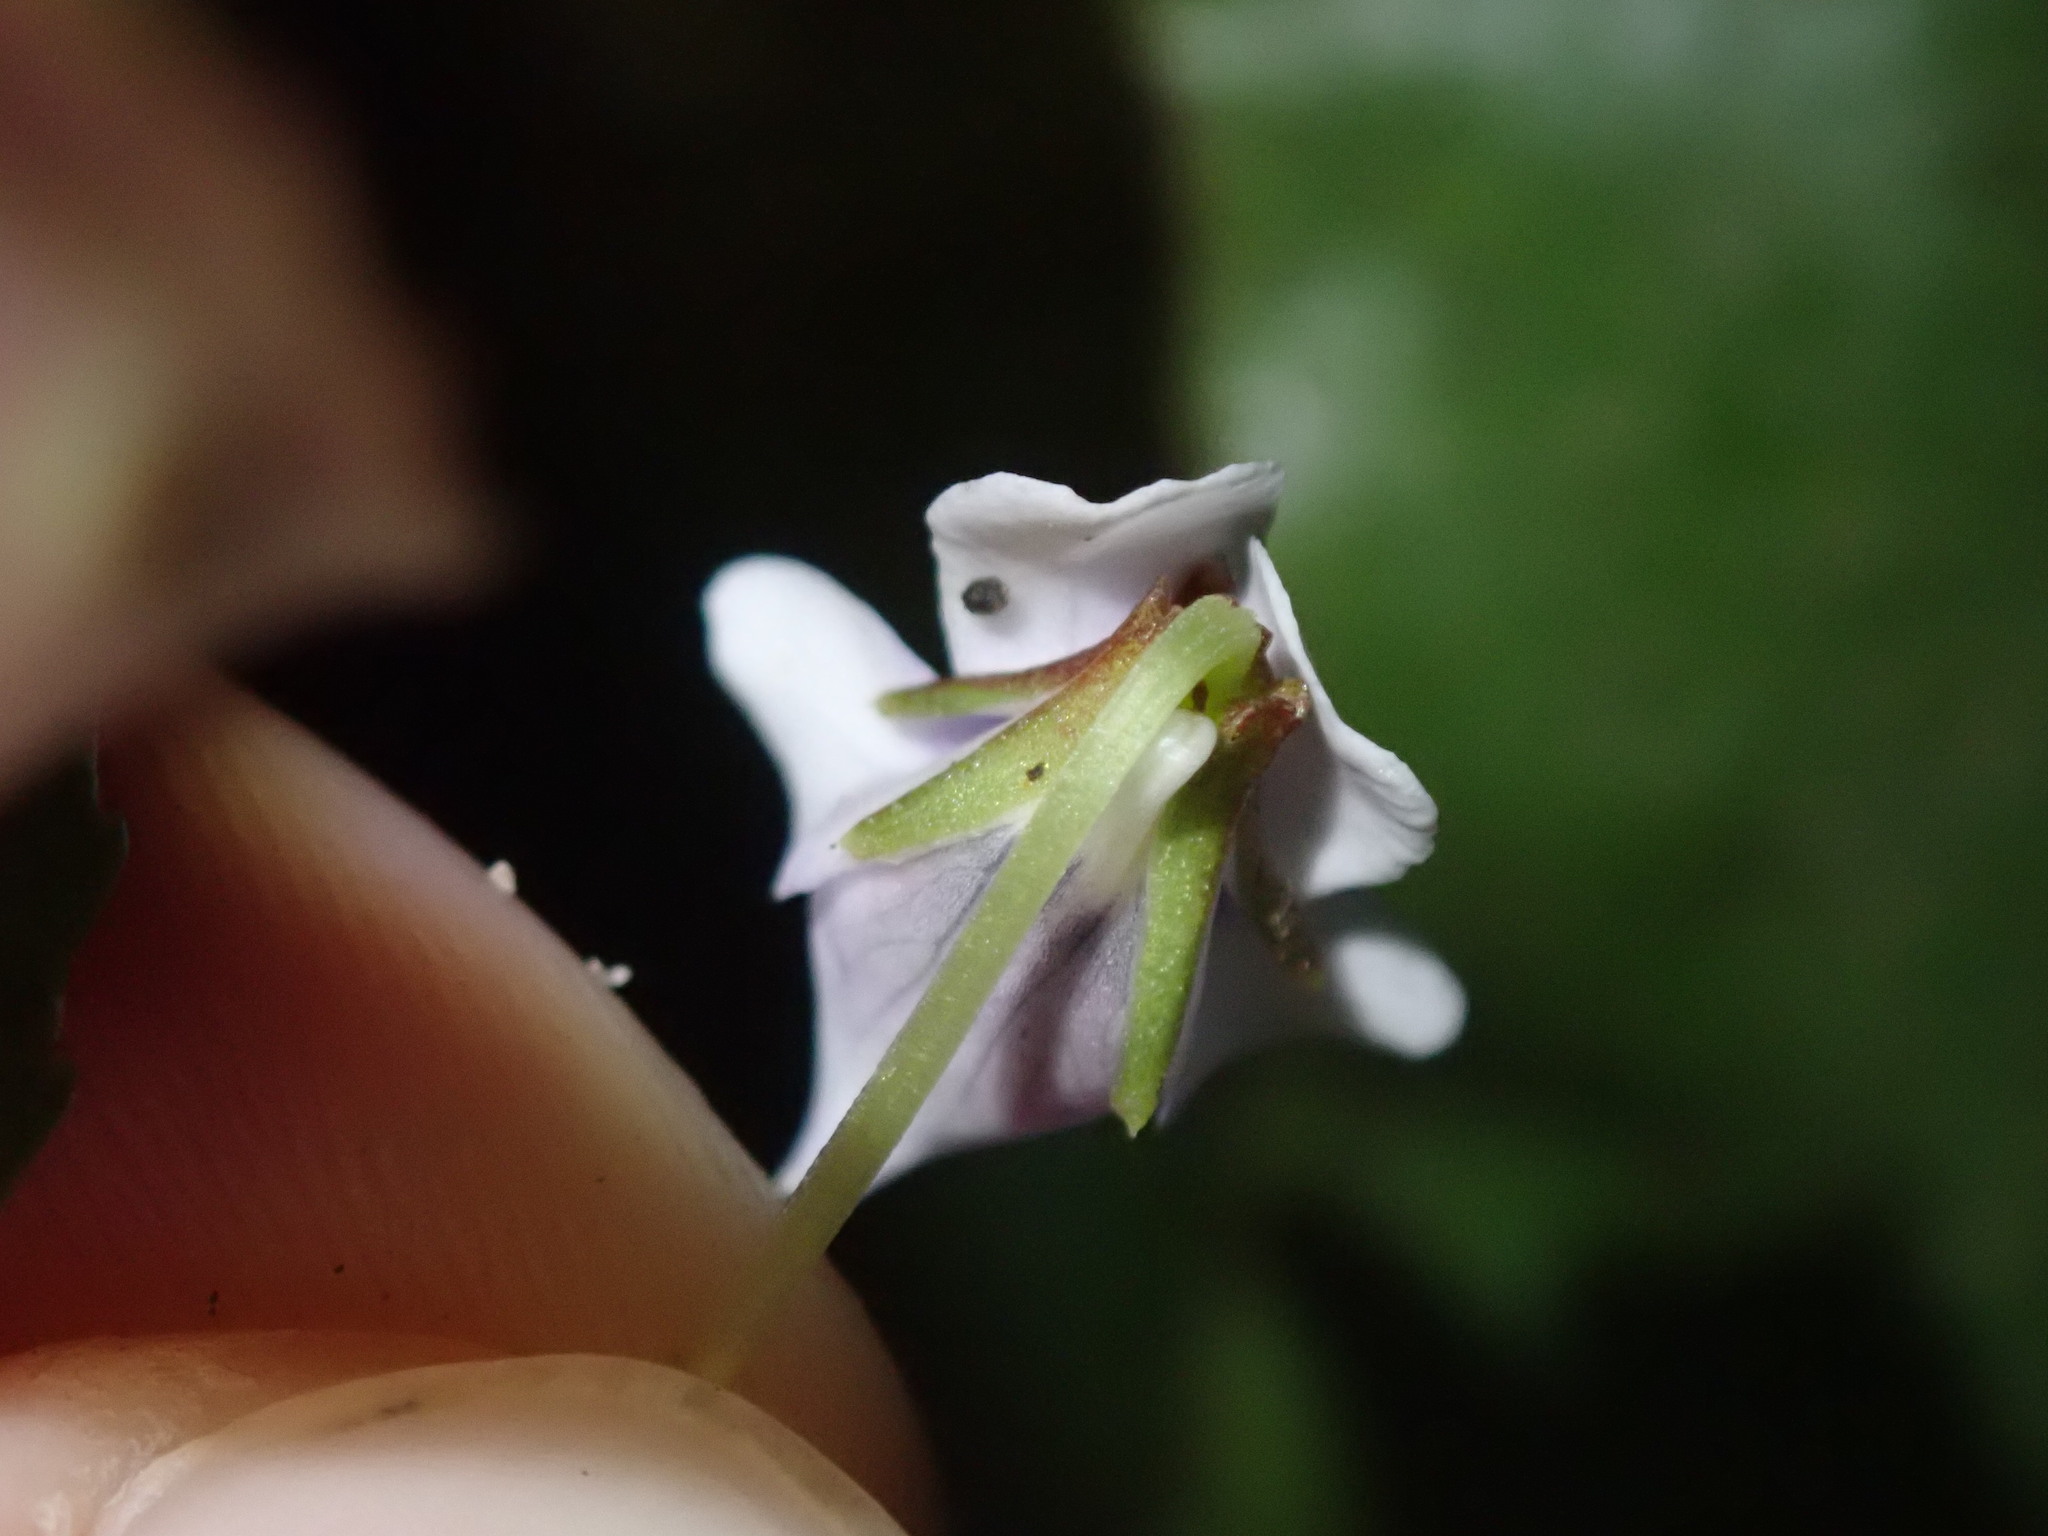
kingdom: Plantae
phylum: Tracheophyta
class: Magnoliopsida
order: Malpighiales
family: Violaceae
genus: Viola
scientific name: Viola stipularis
